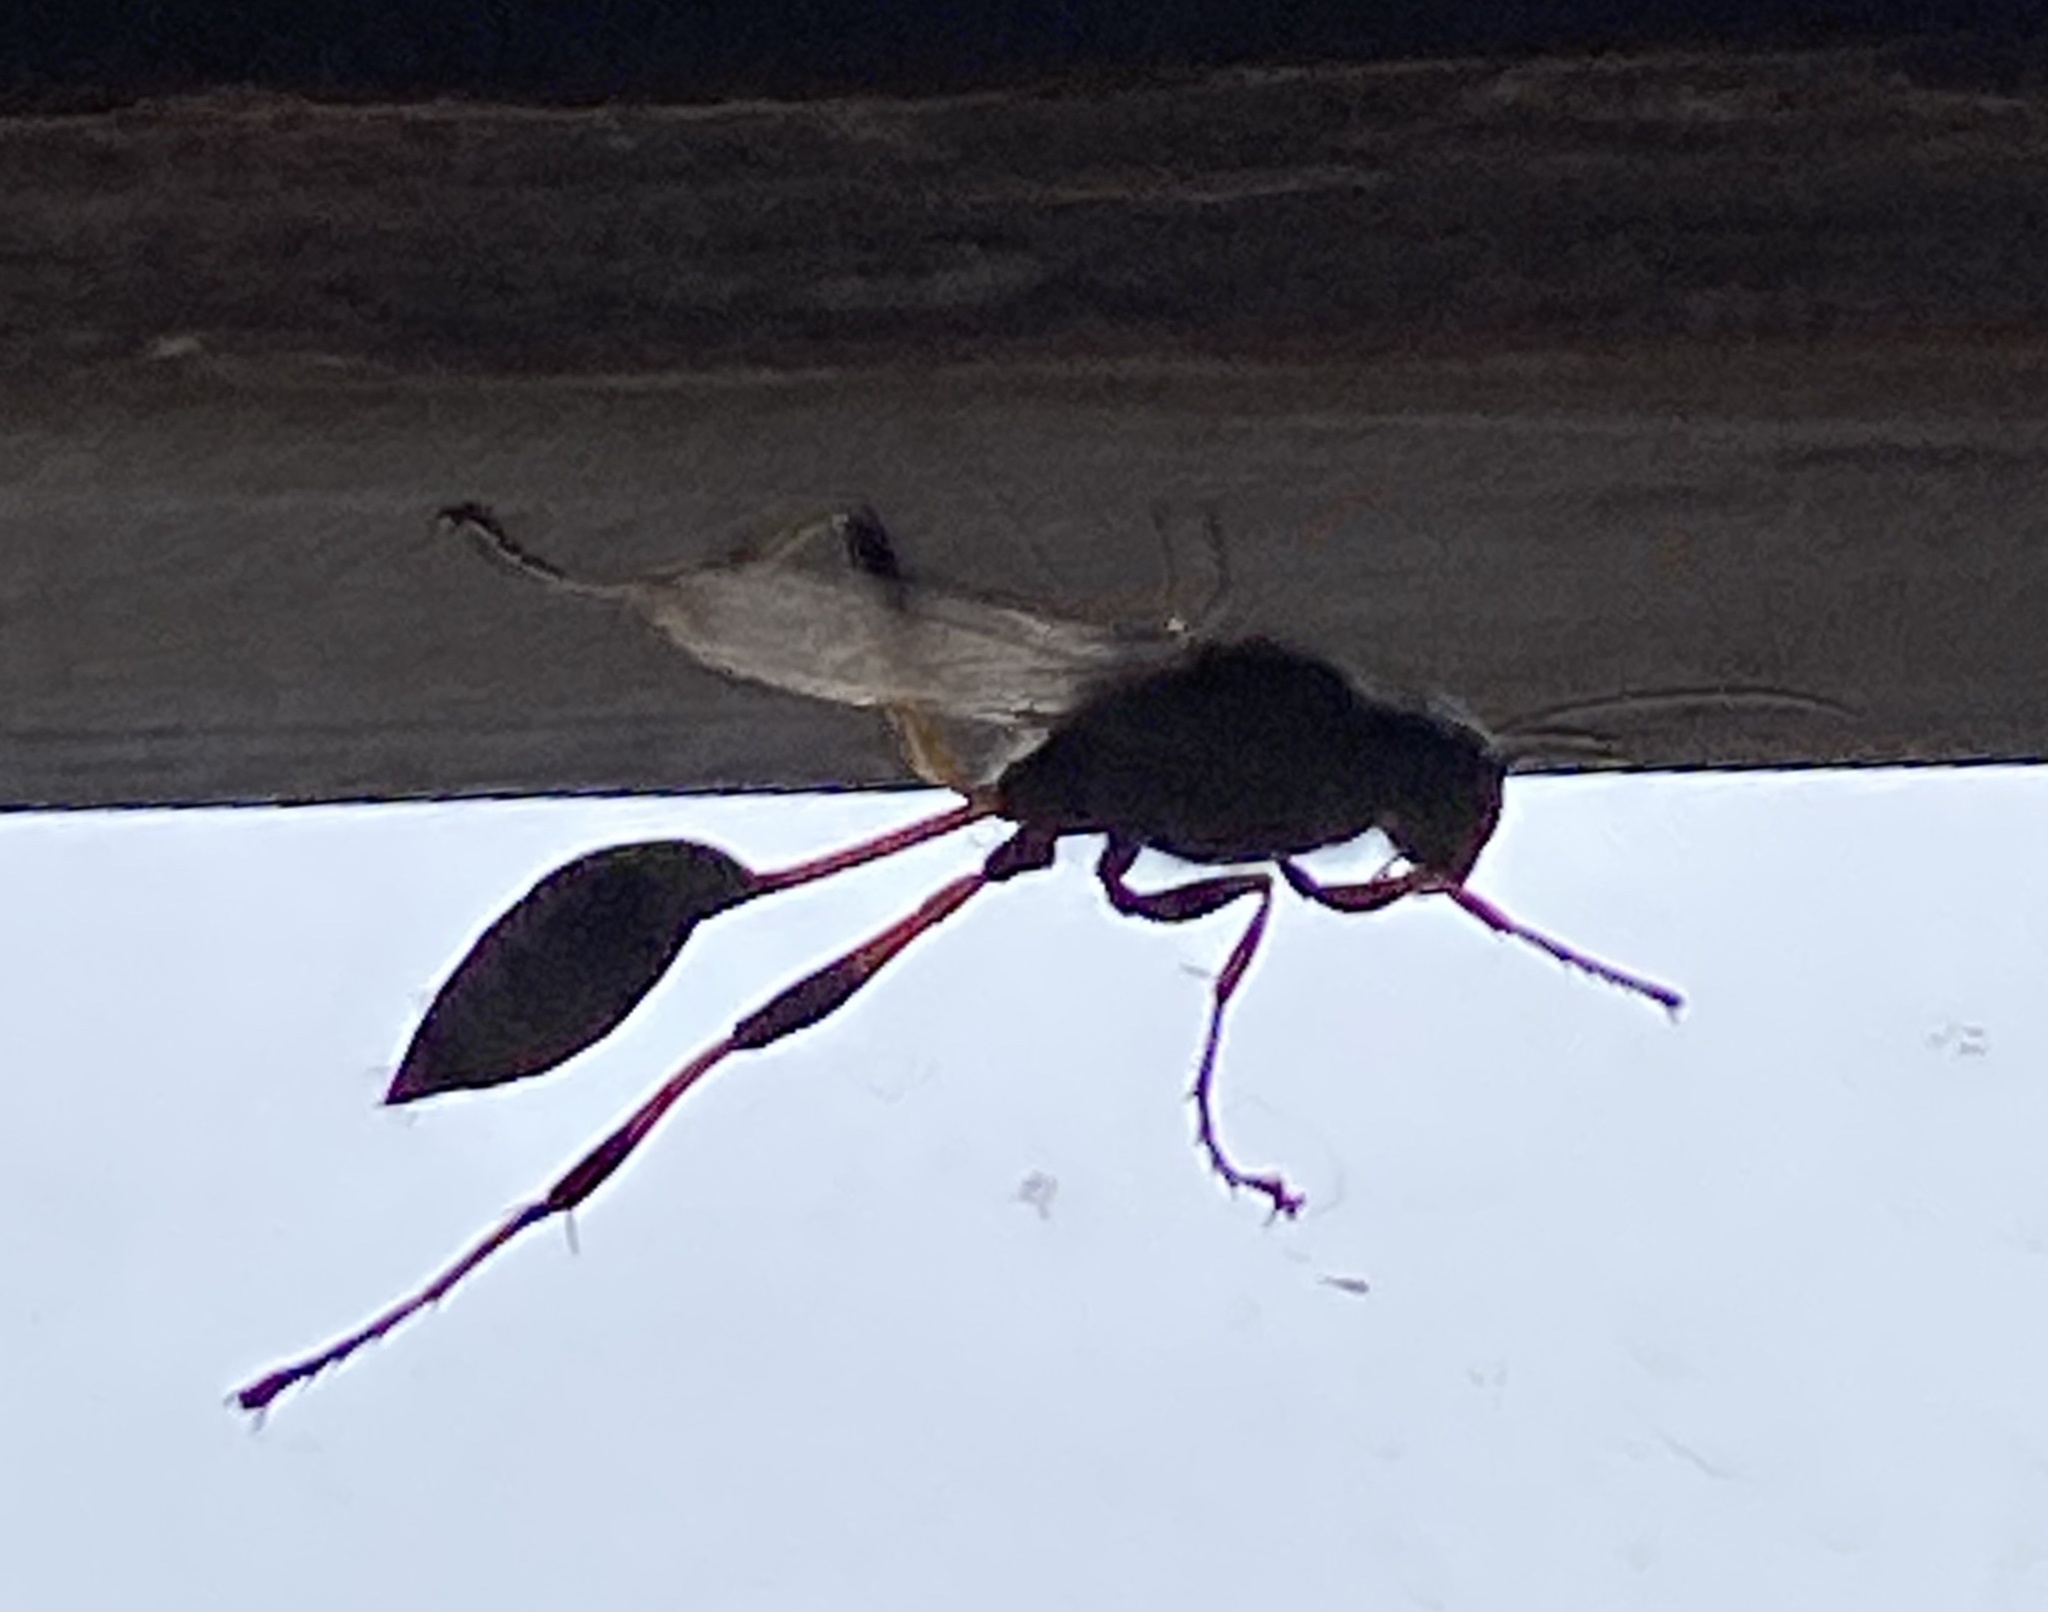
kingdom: Animalia
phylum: Arthropoda
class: Insecta
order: Hymenoptera
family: Sphecidae
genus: Sceliphron
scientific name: Sceliphron spirifex
